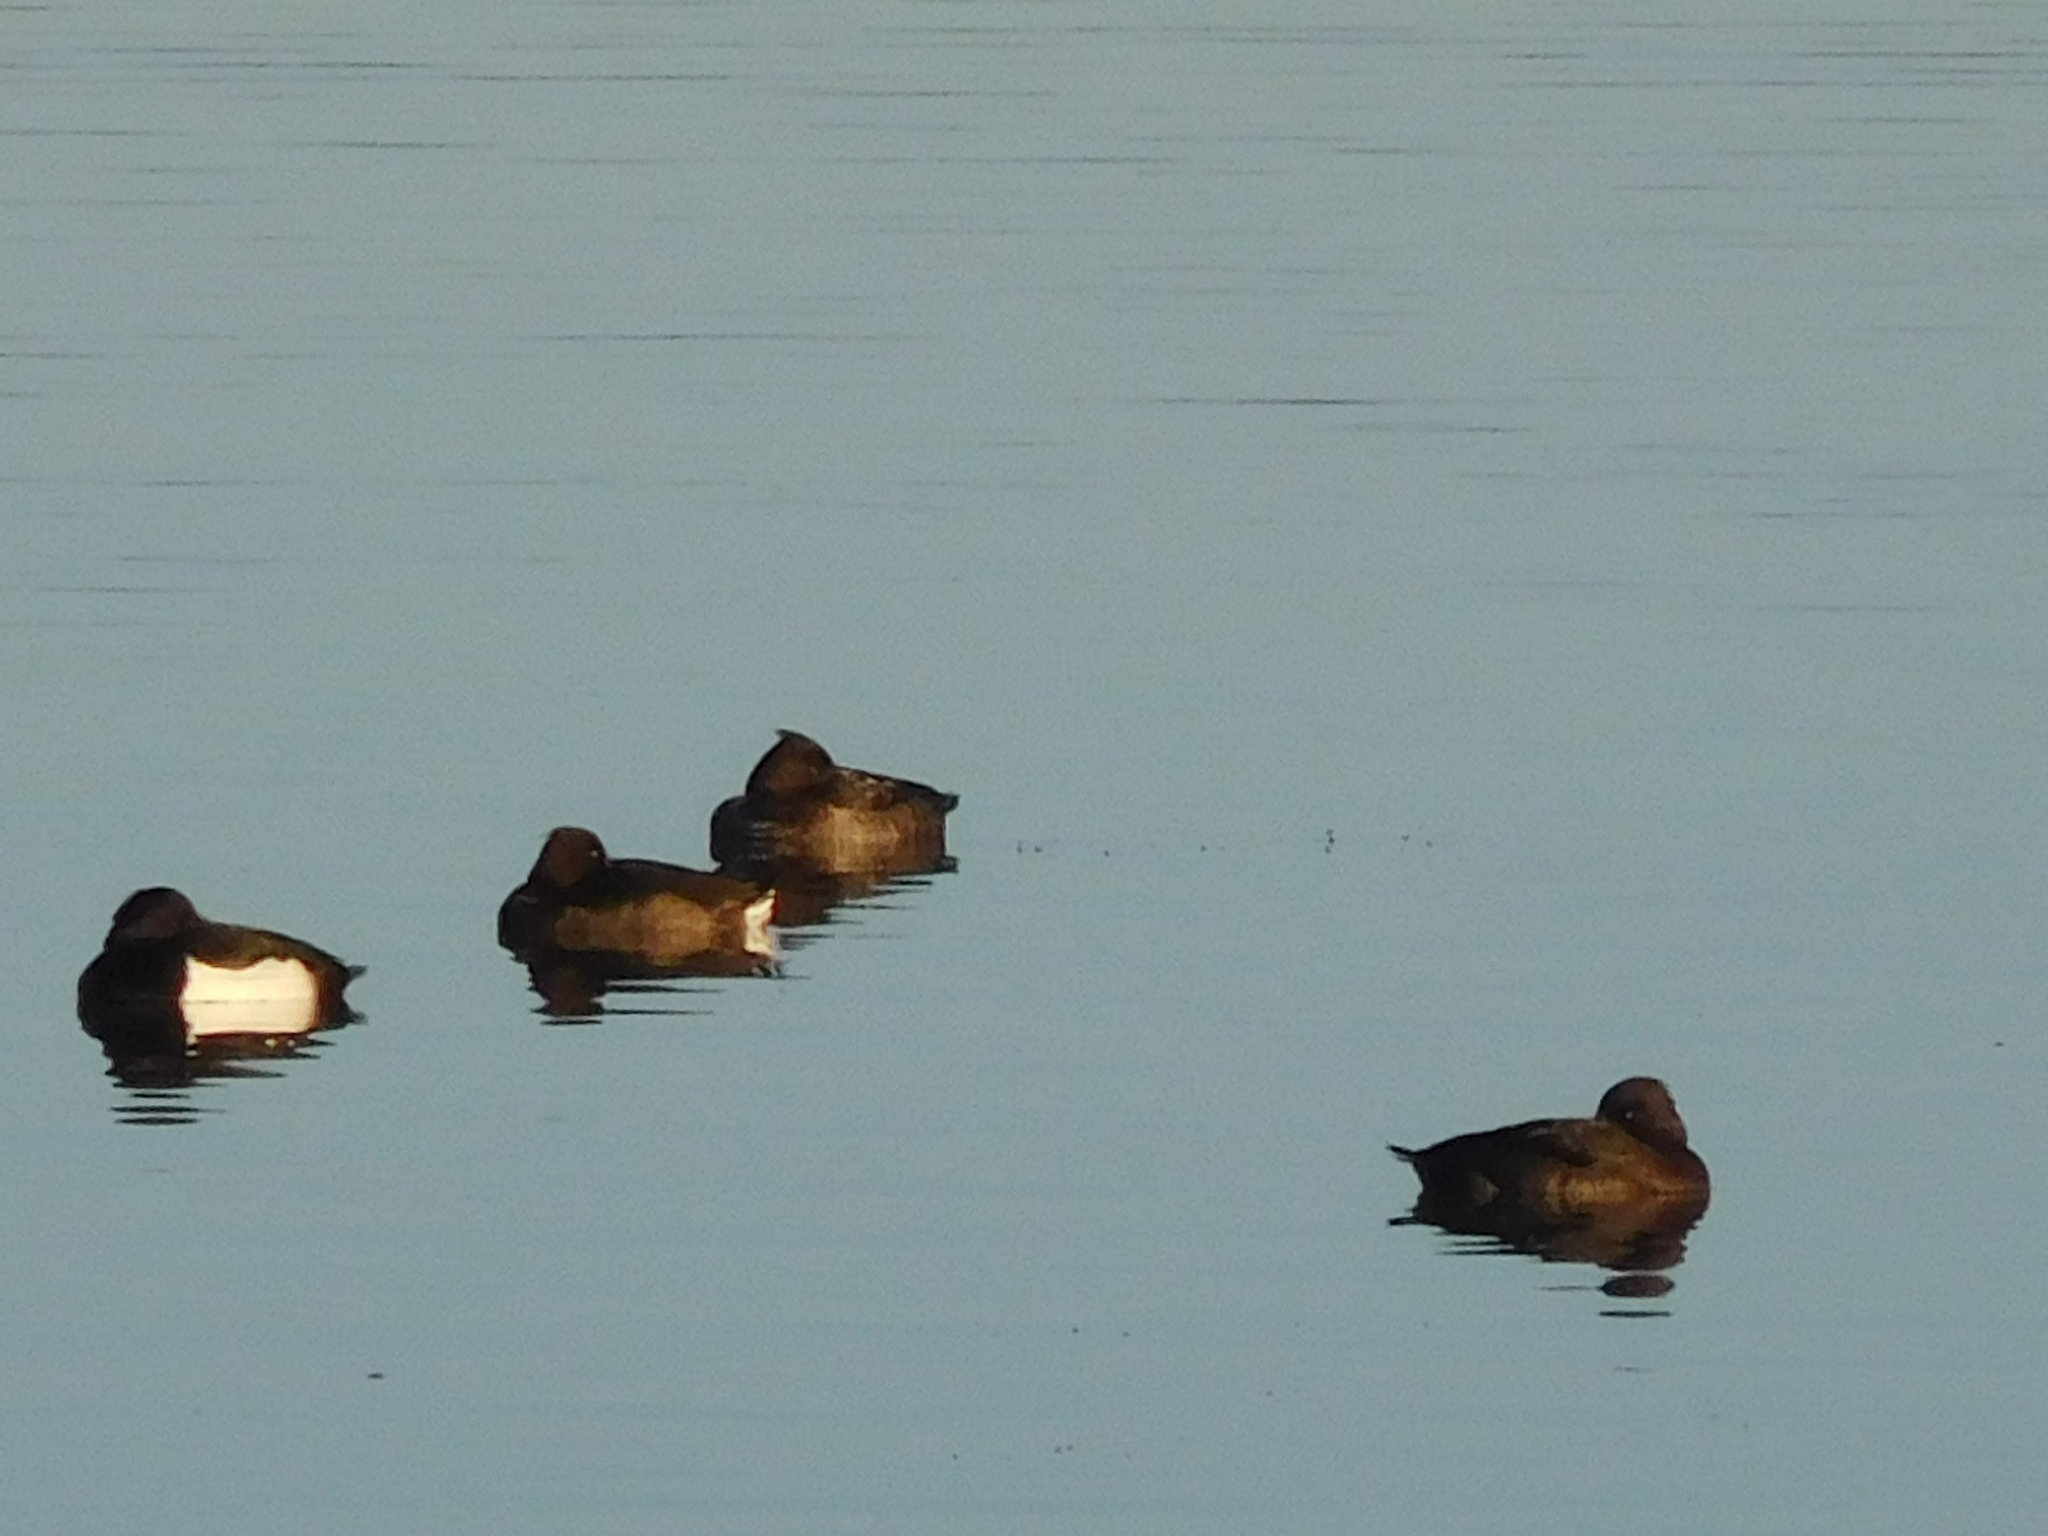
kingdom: Animalia
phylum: Chordata
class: Aves
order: Anseriformes
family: Anatidae
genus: Aythya
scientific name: Aythya fuligula
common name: Tufted duck
